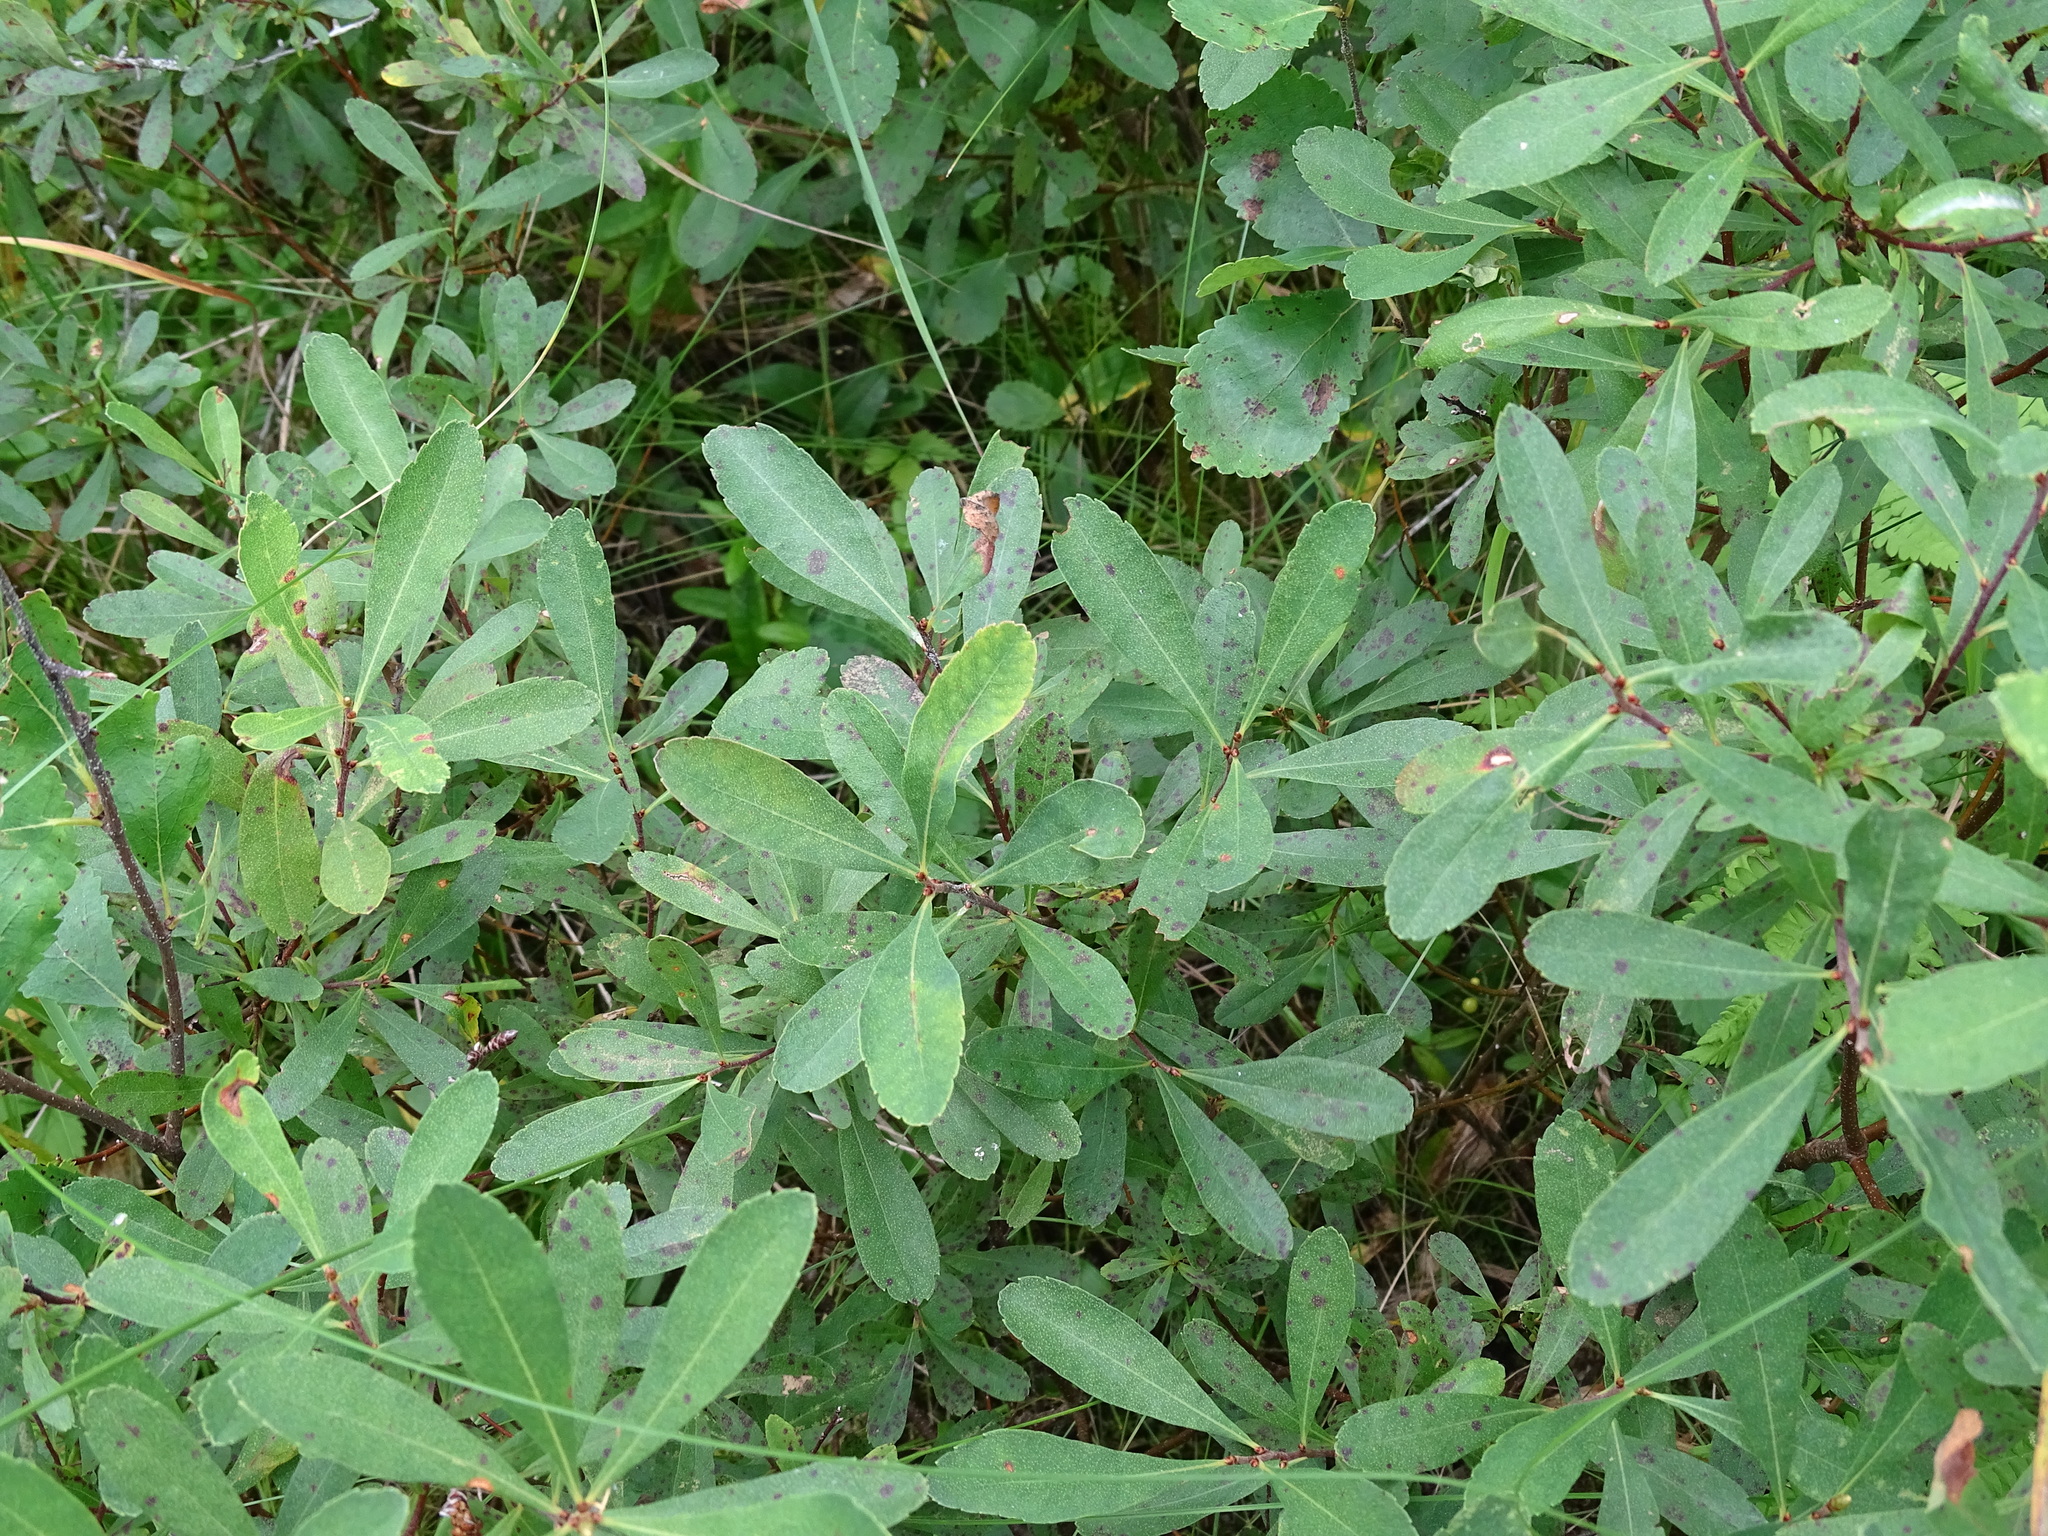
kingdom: Plantae
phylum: Tracheophyta
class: Magnoliopsida
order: Fagales
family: Myricaceae
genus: Myrica
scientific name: Myrica gale
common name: Sweet gale
